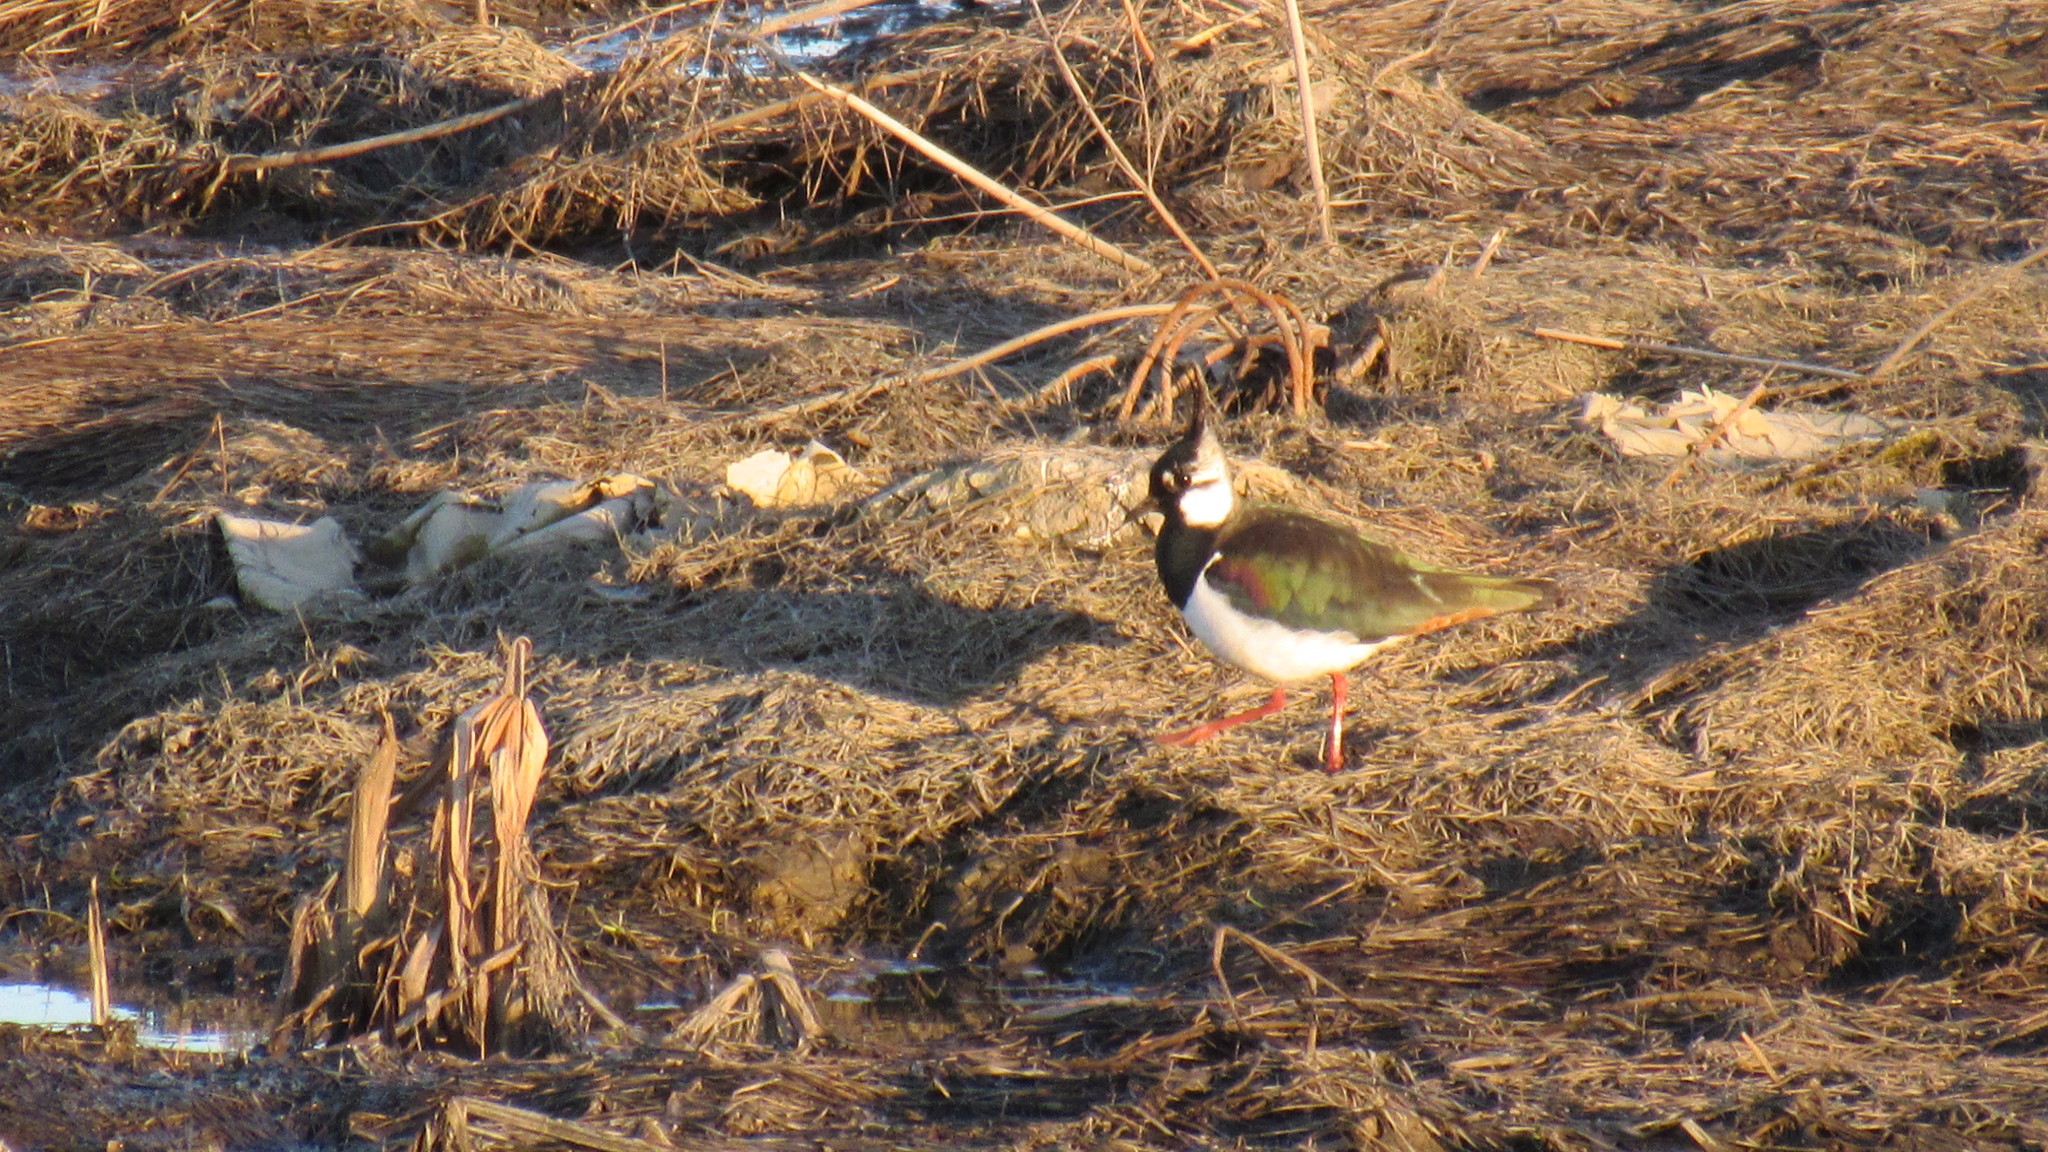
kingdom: Animalia
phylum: Chordata
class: Aves
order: Charadriiformes
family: Charadriidae
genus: Vanellus
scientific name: Vanellus vanellus
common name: Northern lapwing
